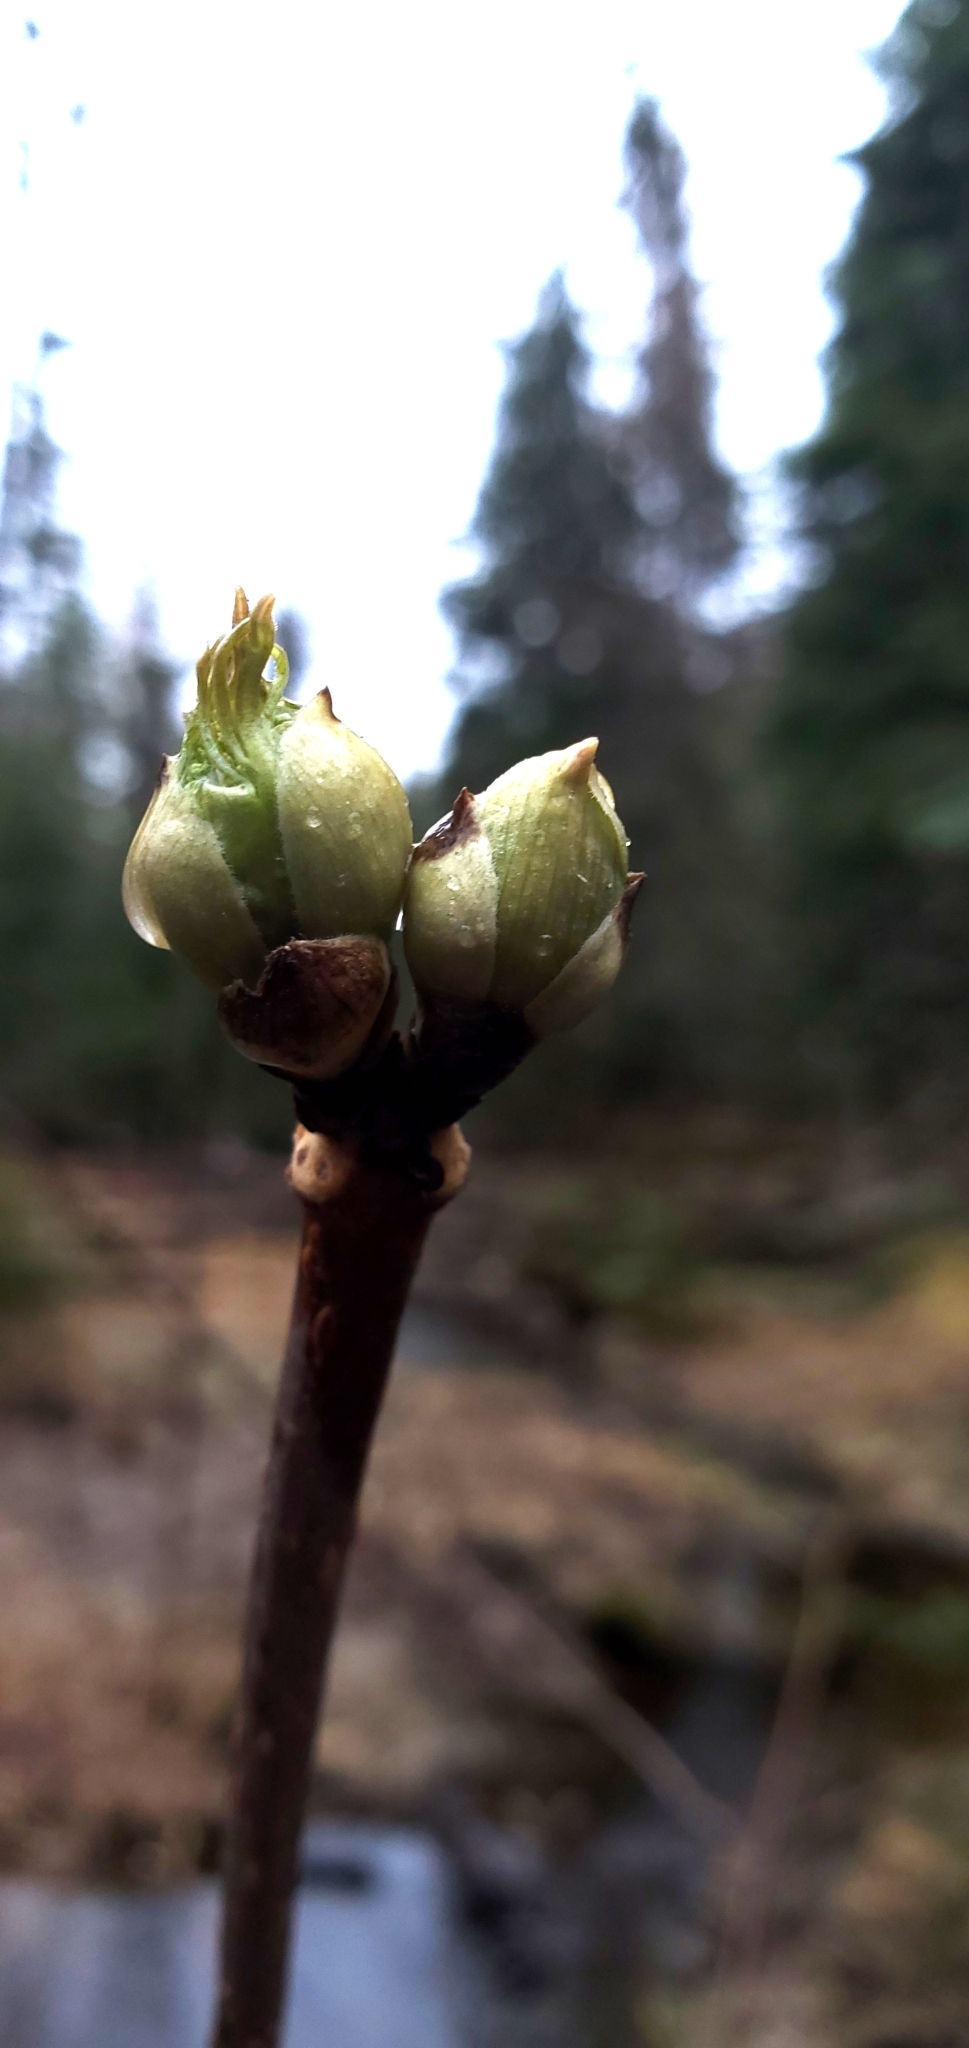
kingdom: Plantae
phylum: Tracheophyta
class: Magnoliopsida
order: Dipsacales
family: Viburnaceae
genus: Sambucus
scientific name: Sambucus racemosa
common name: Red-berried elder
